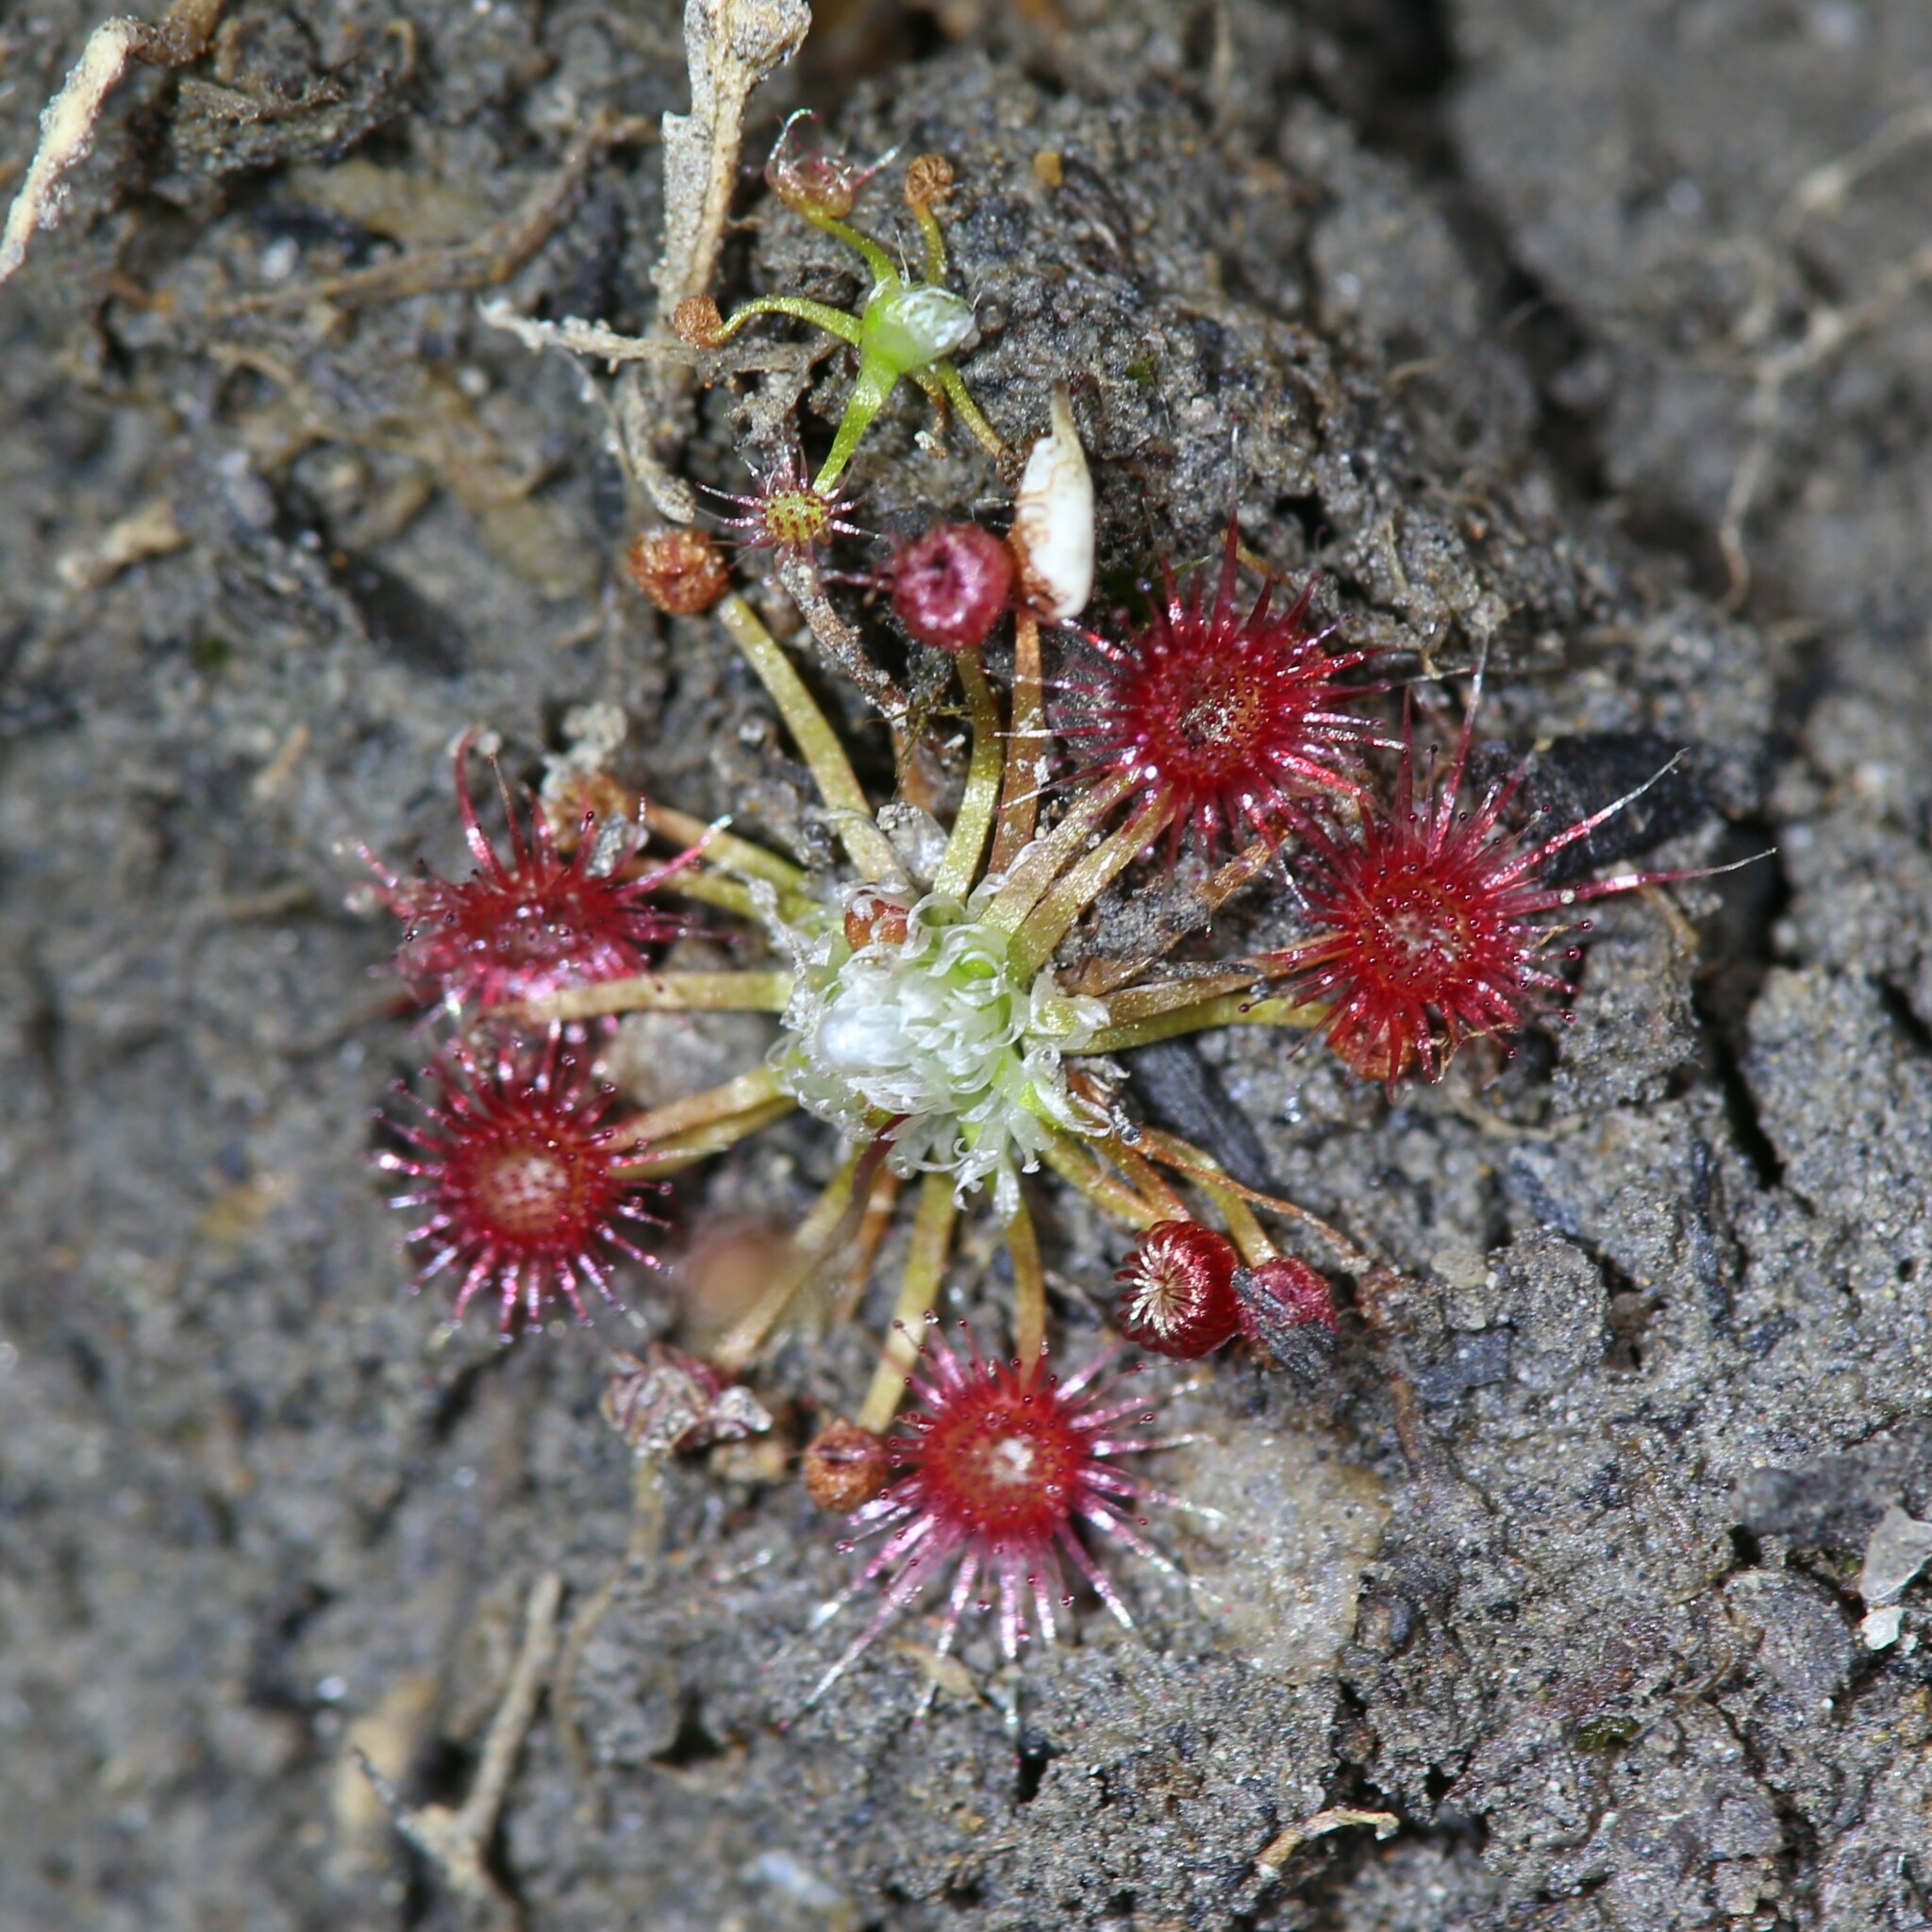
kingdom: Plantae
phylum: Tracheophyta
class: Magnoliopsida
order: Caryophyllales
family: Droseraceae
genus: Drosera
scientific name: Drosera pygmaea
